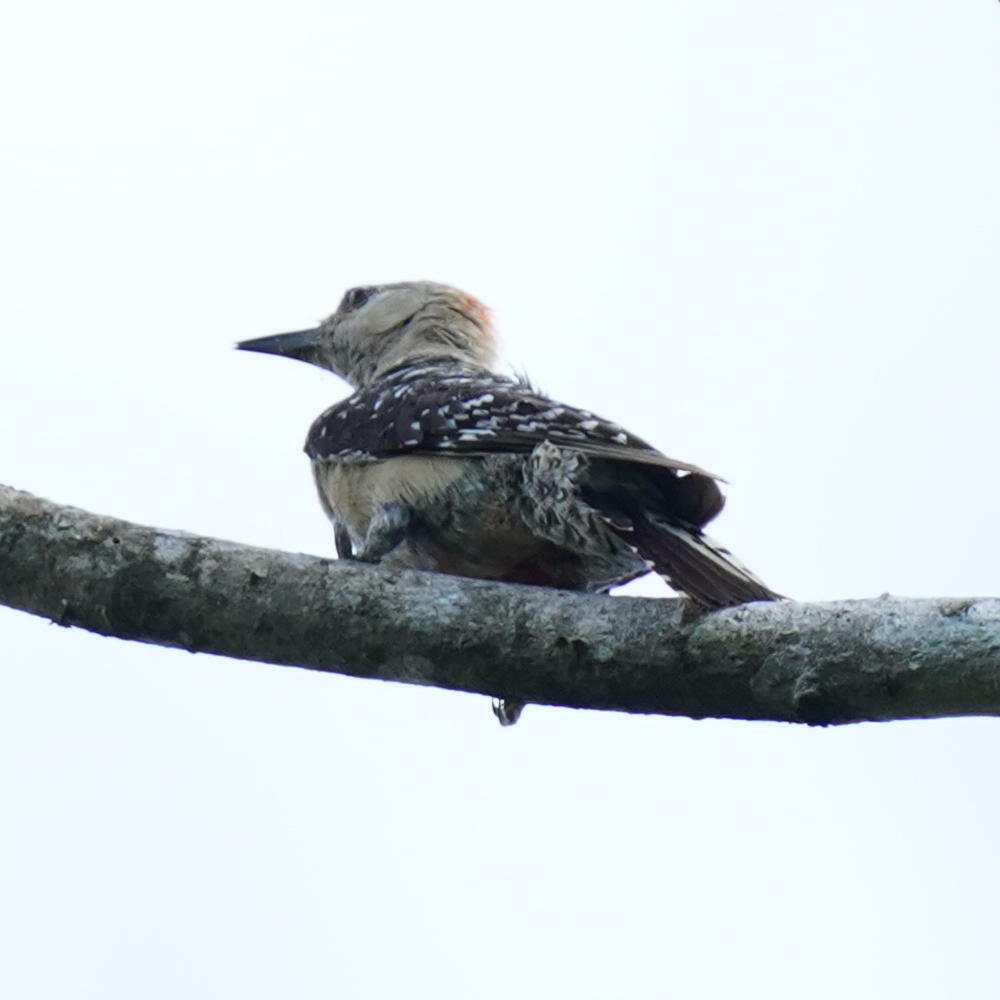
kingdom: Animalia
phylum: Chordata
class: Aves
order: Piciformes
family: Picidae
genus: Melanerpes
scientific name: Melanerpes rubricapillus
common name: Red-crowned woodpecker
